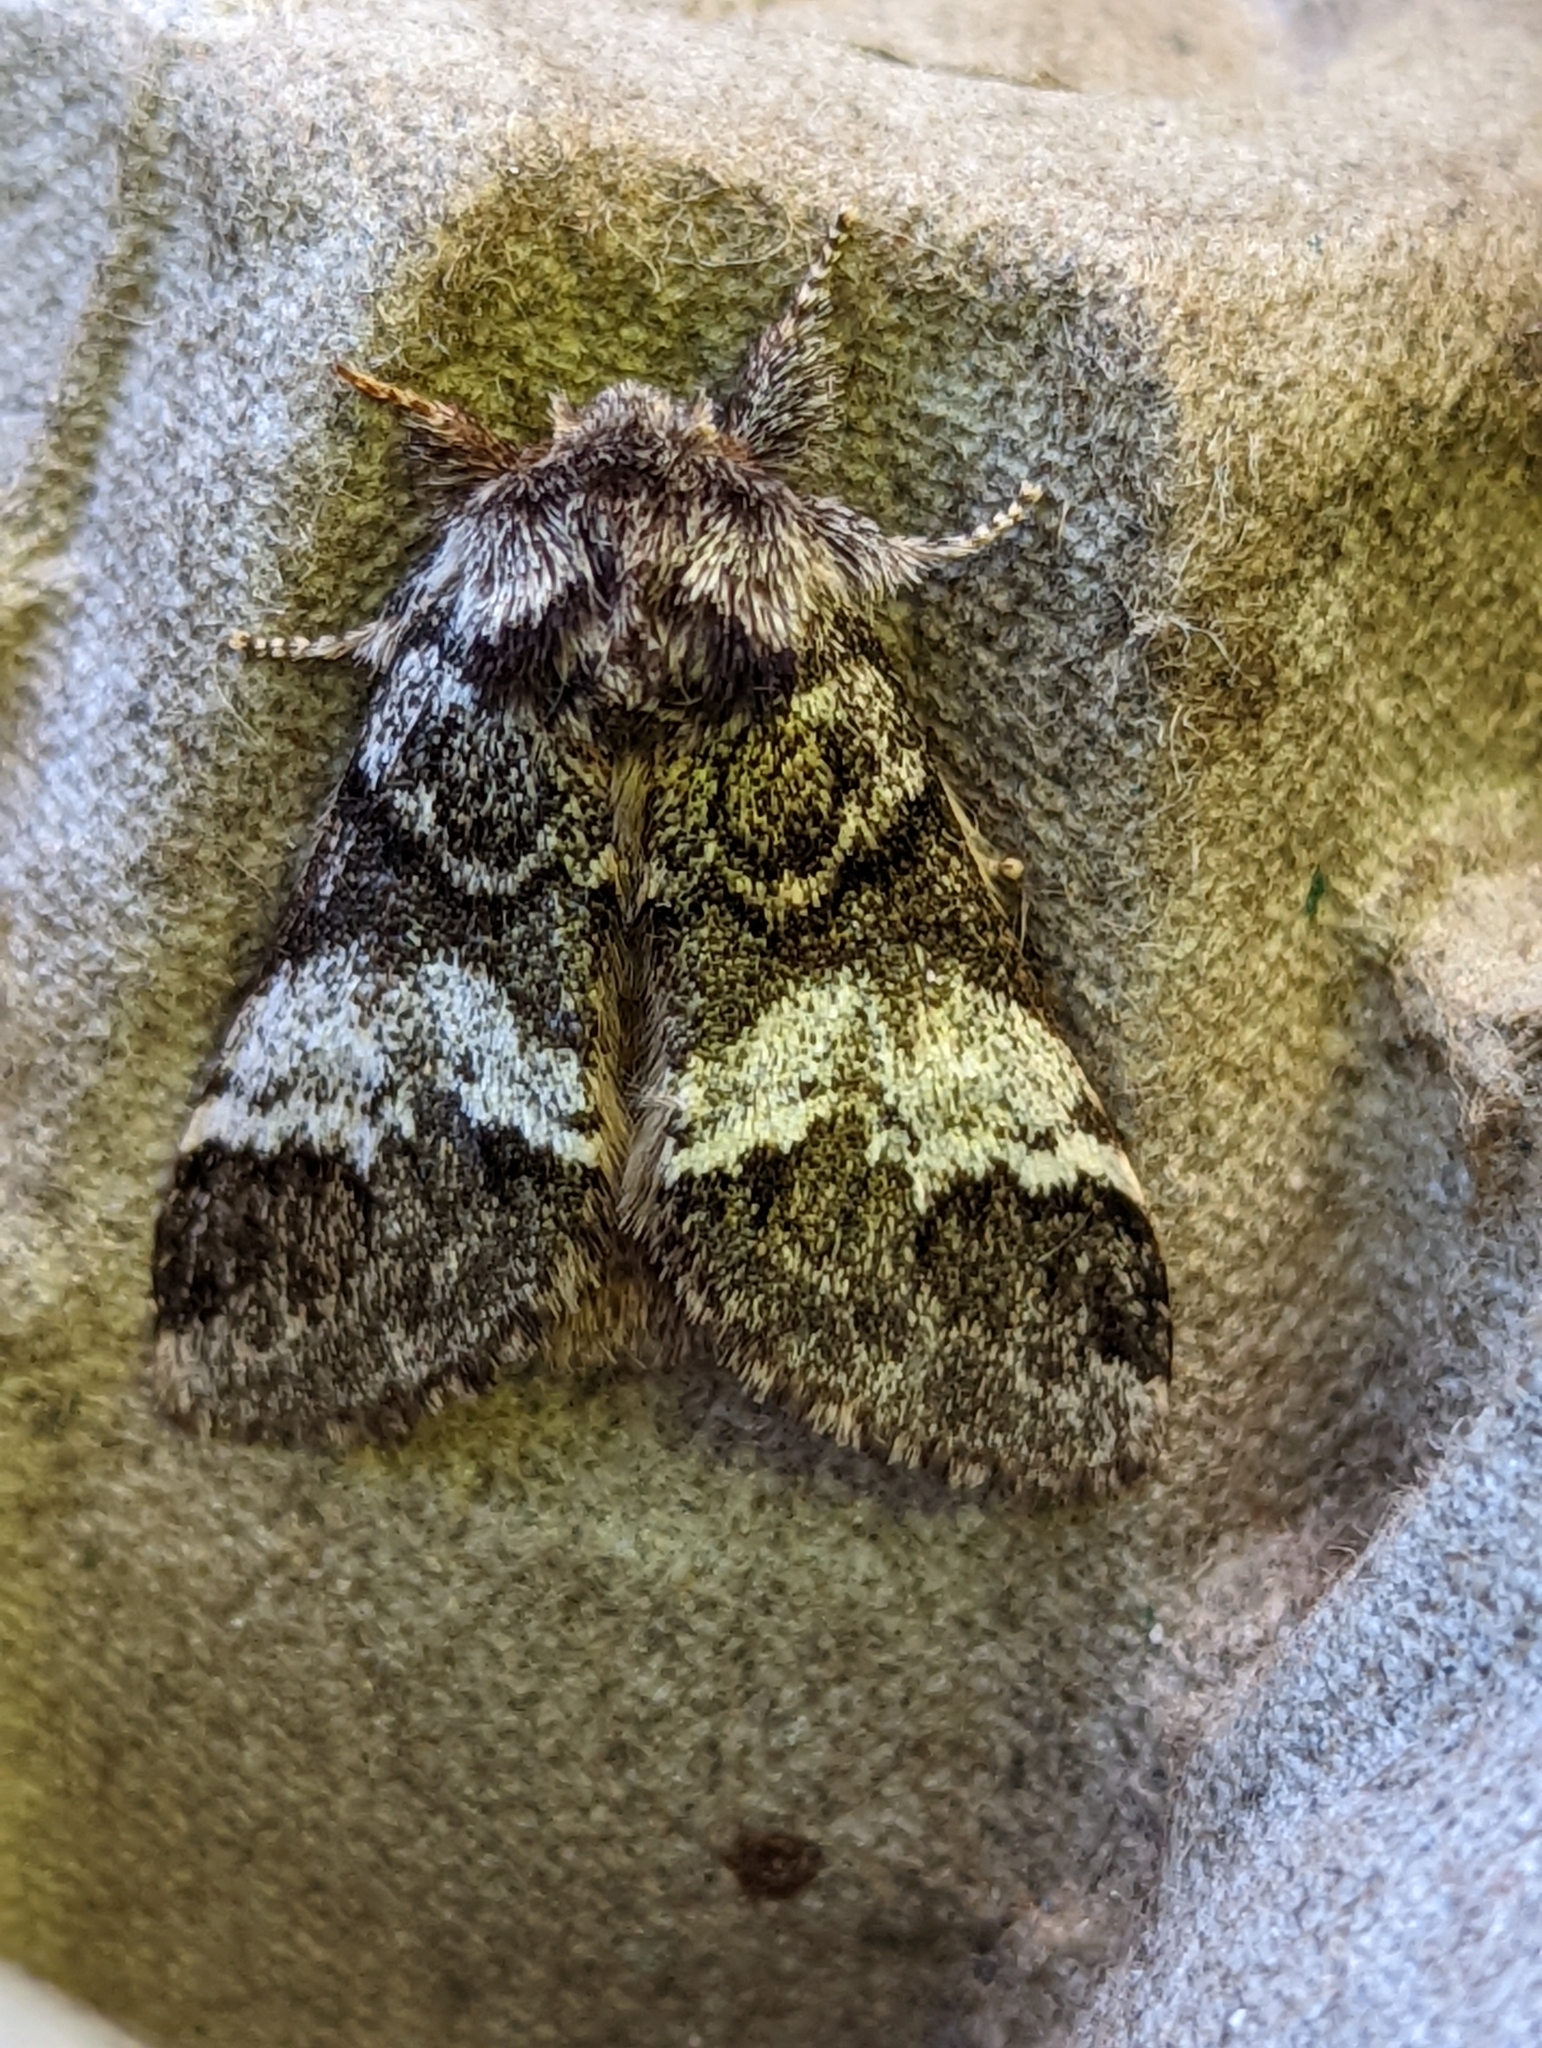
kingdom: Animalia
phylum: Arthropoda
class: Insecta
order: Lepidoptera
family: Notodontidae
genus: Drymonia
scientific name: Drymonia dodonaea
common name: Marbled brown
